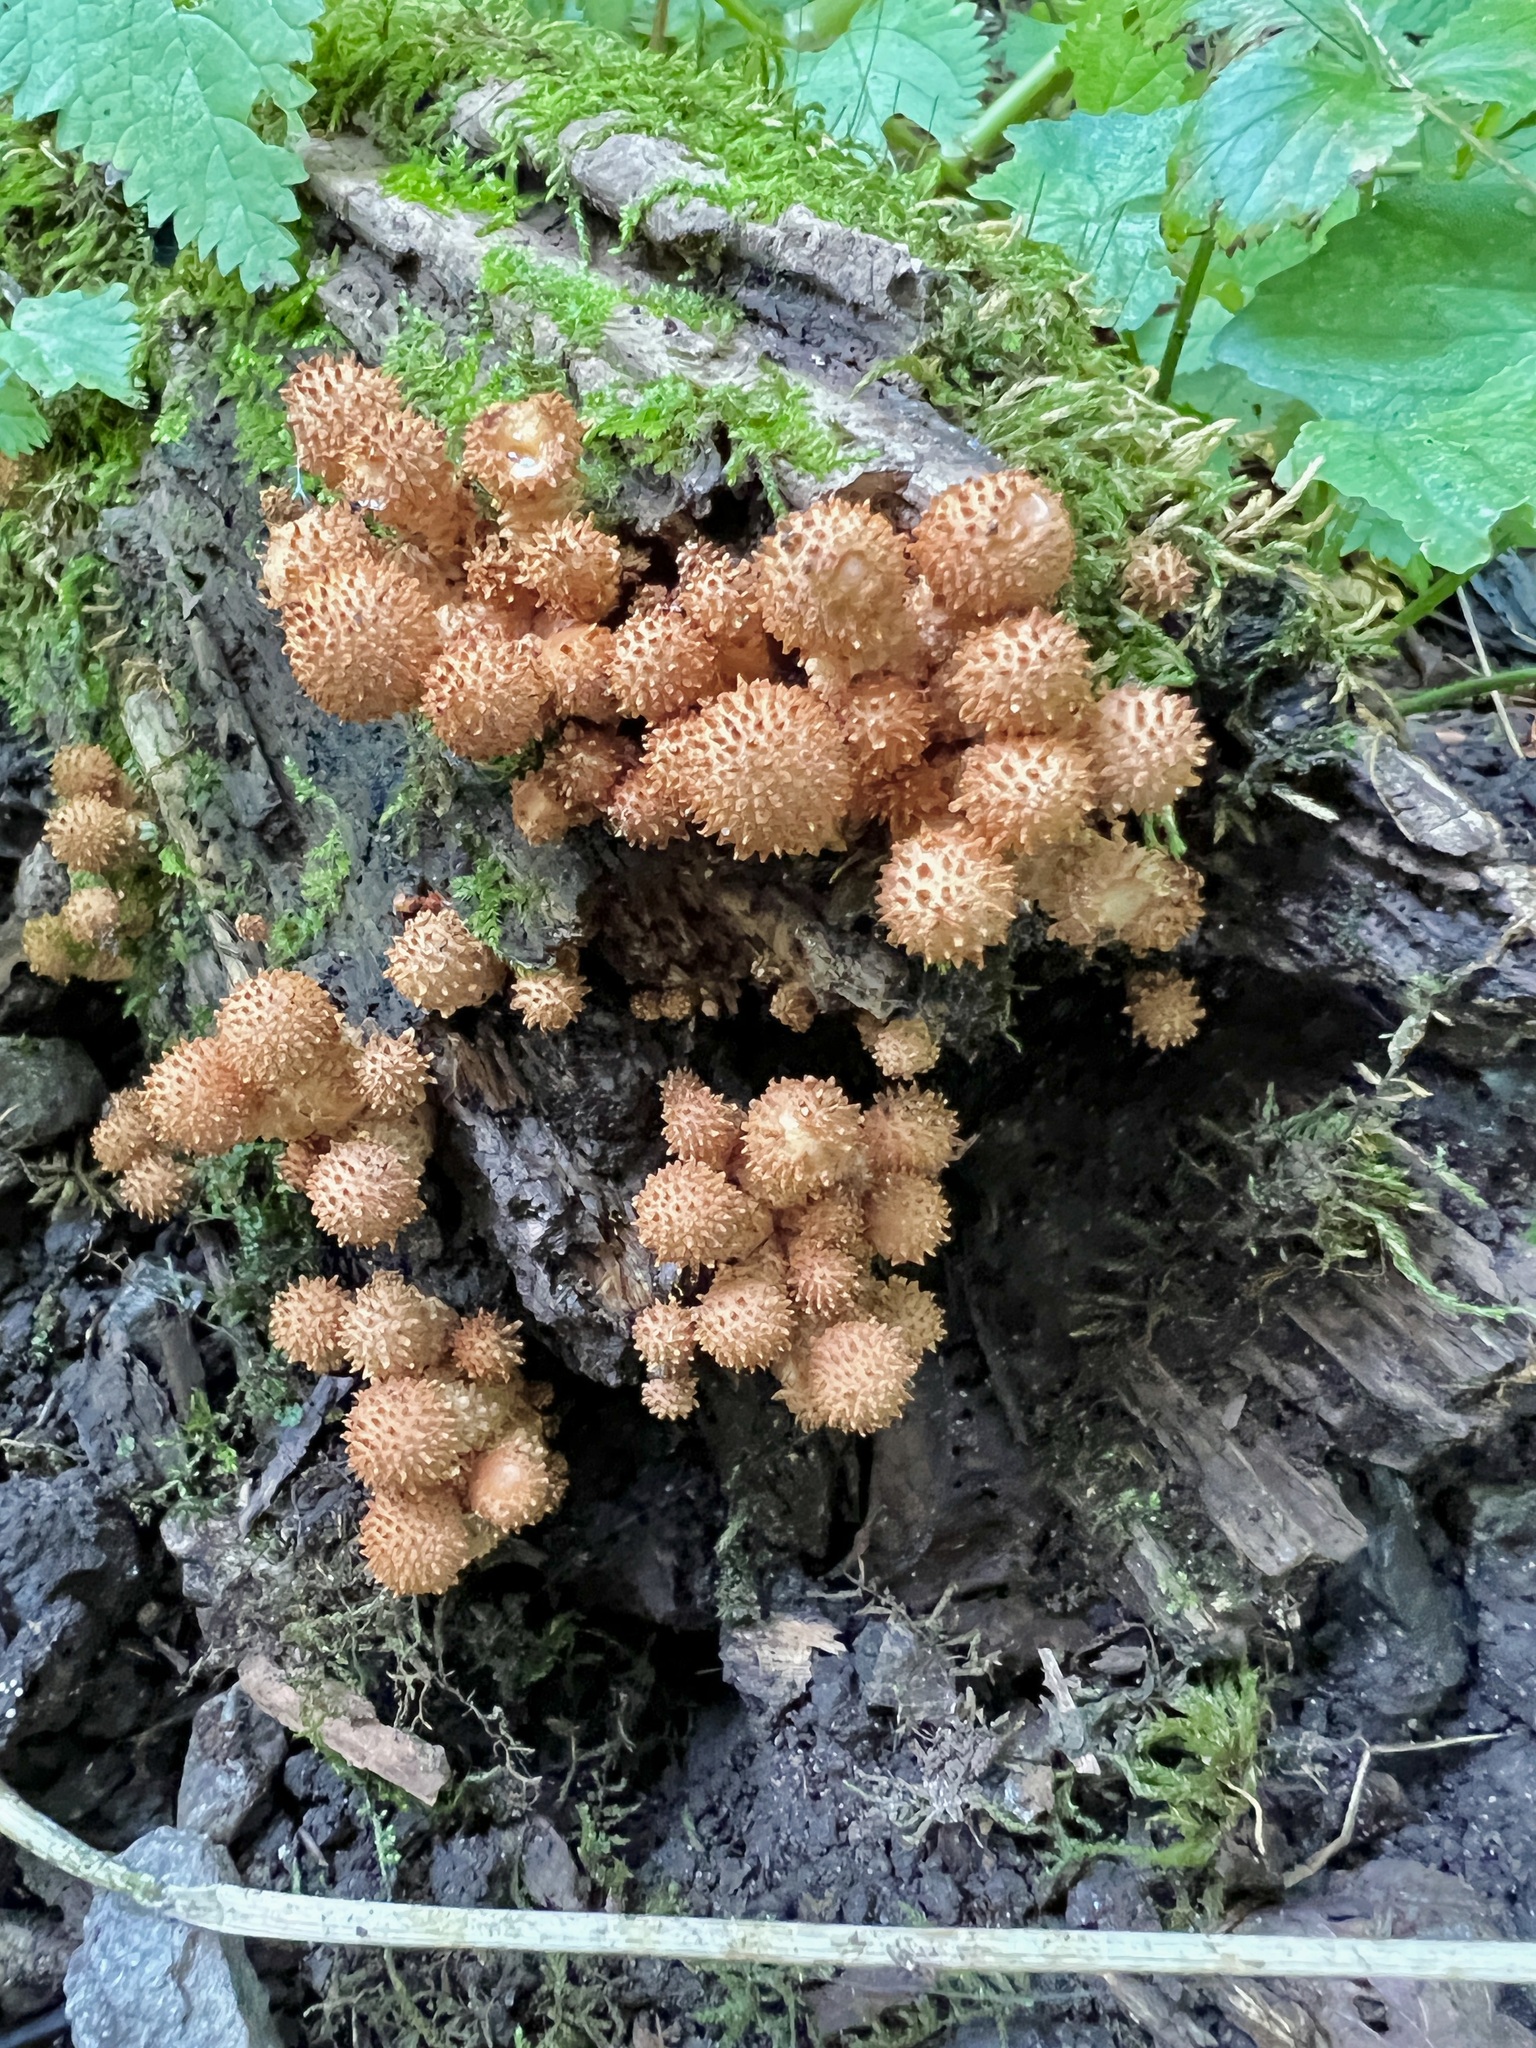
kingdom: Fungi
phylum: Basidiomycota
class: Agaricomycetes
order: Agaricales
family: Strophariaceae
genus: Pholiota
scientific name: Pholiota squarrosoides
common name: Sharp-scaly pholiota
